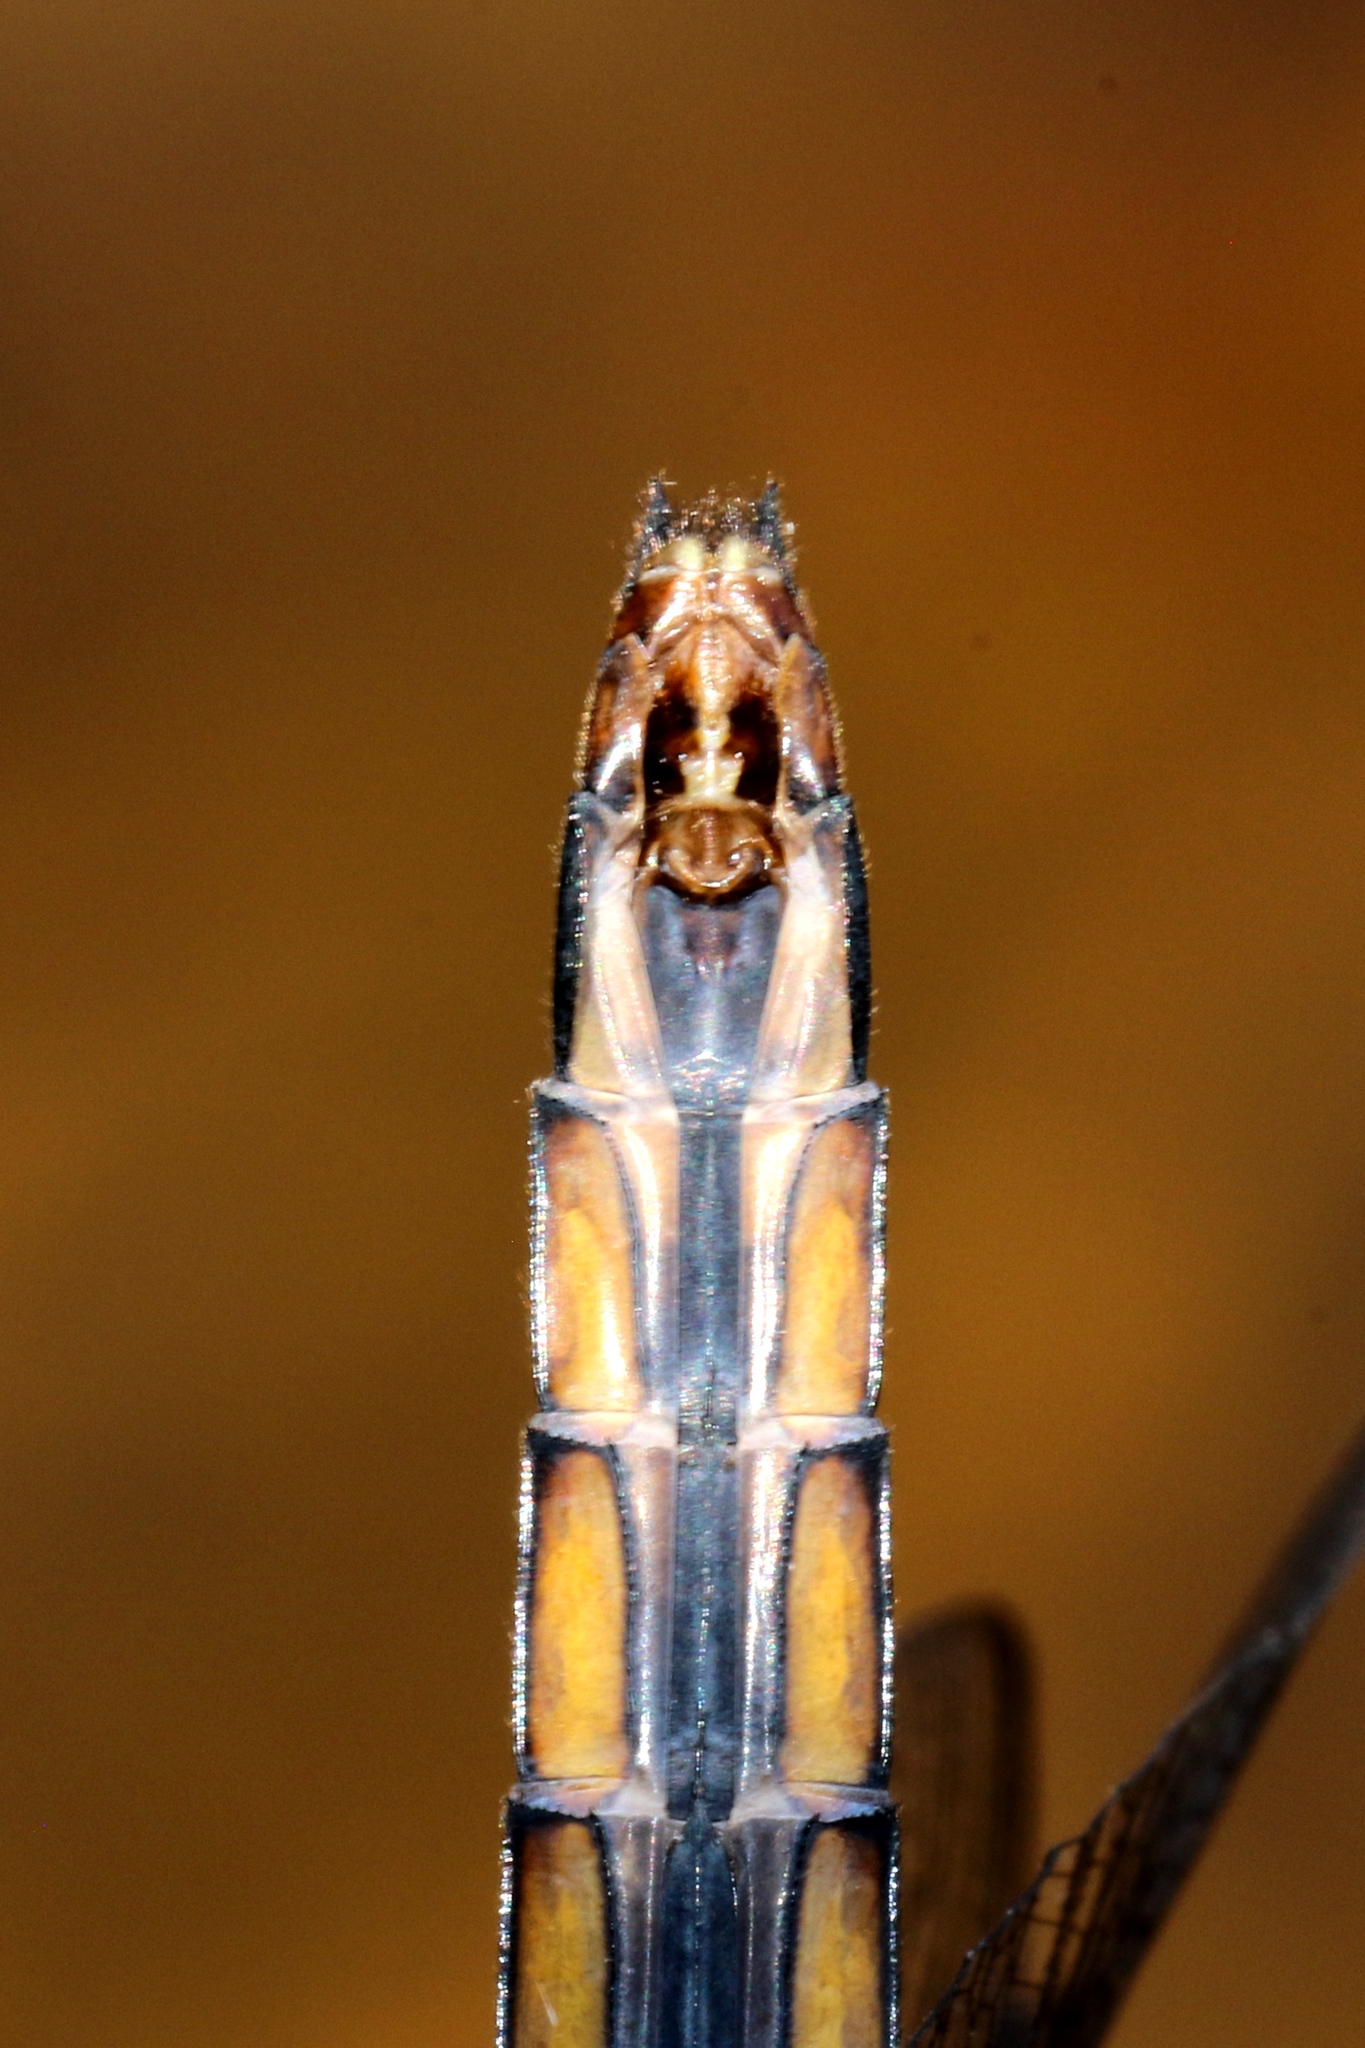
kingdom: Animalia
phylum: Arthropoda
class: Insecta
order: Odonata
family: Libellulidae
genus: Libellula
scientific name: Libellula incesta
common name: Slaty skimmer
